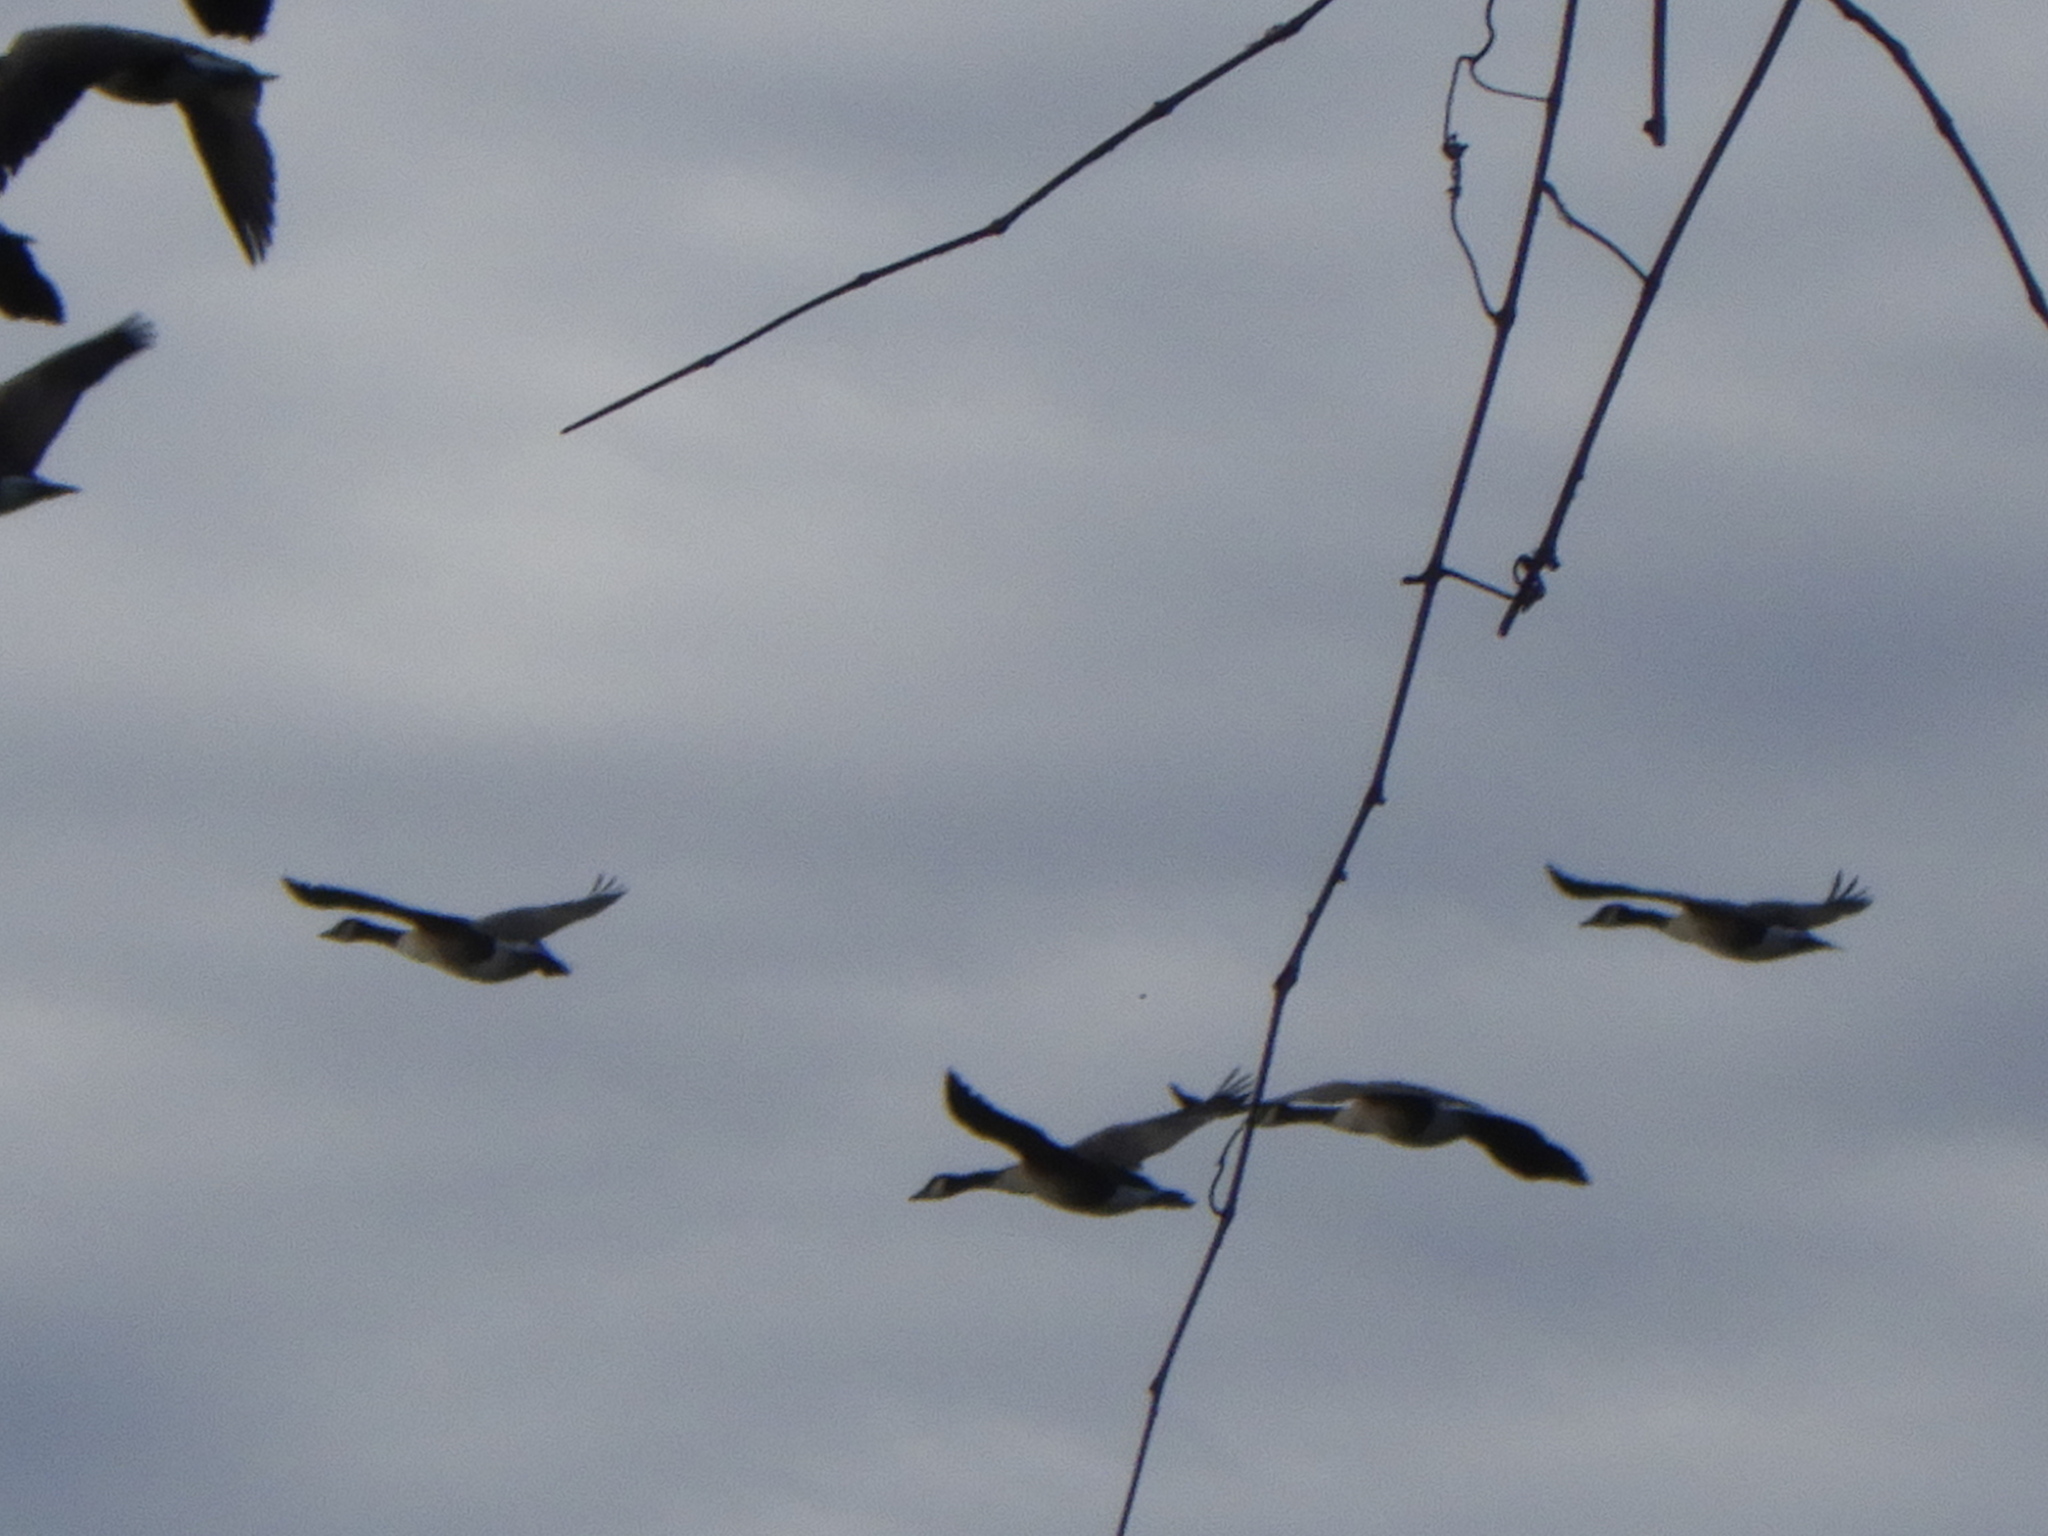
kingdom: Animalia
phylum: Chordata
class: Aves
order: Anseriformes
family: Anatidae
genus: Branta
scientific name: Branta canadensis
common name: Canada goose
